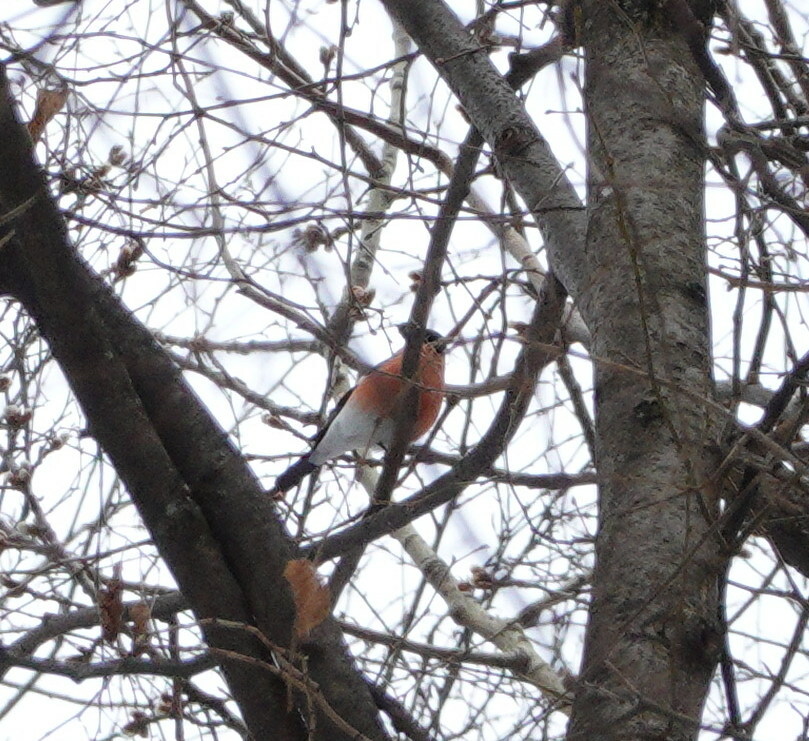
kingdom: Animalia
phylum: Chordata
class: Aves
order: Passeriformes
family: Fringillidae
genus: Pyrrhula
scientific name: Pyrrhula pyrrhula
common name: Eurasian bullfinch
